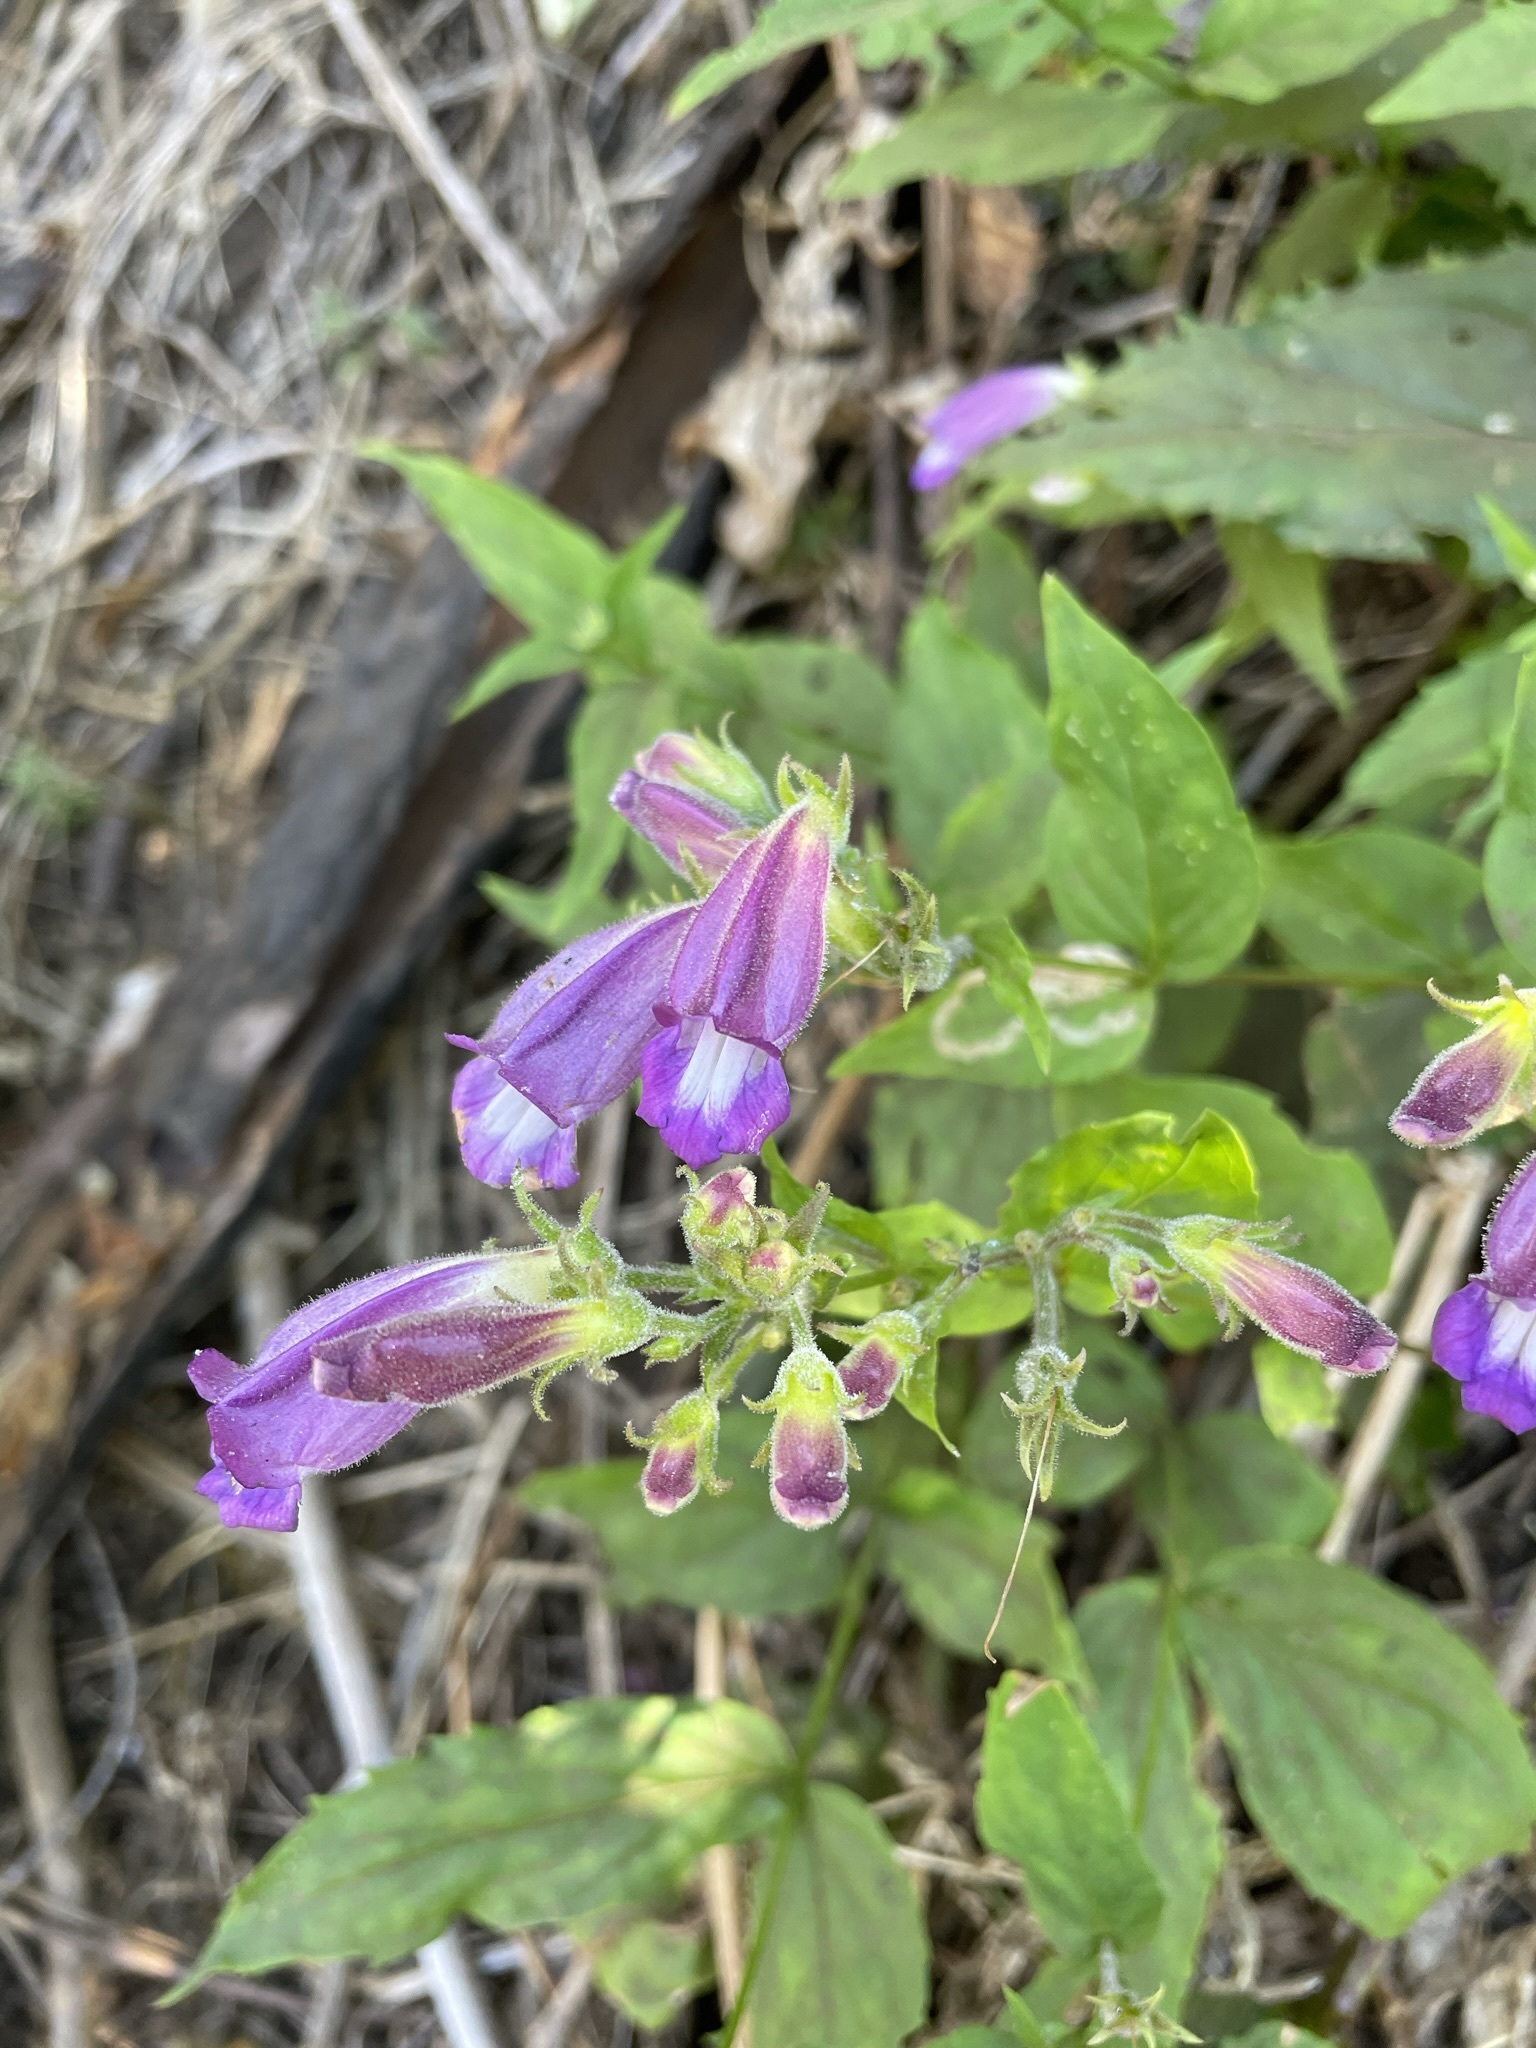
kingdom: Plantae
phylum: Tracheophyta
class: Magnoliopsida
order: Lamiales
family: Plantaginaceae
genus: Nothochelone
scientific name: Nothochelone nemorosa
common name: Woodland beardtongue
